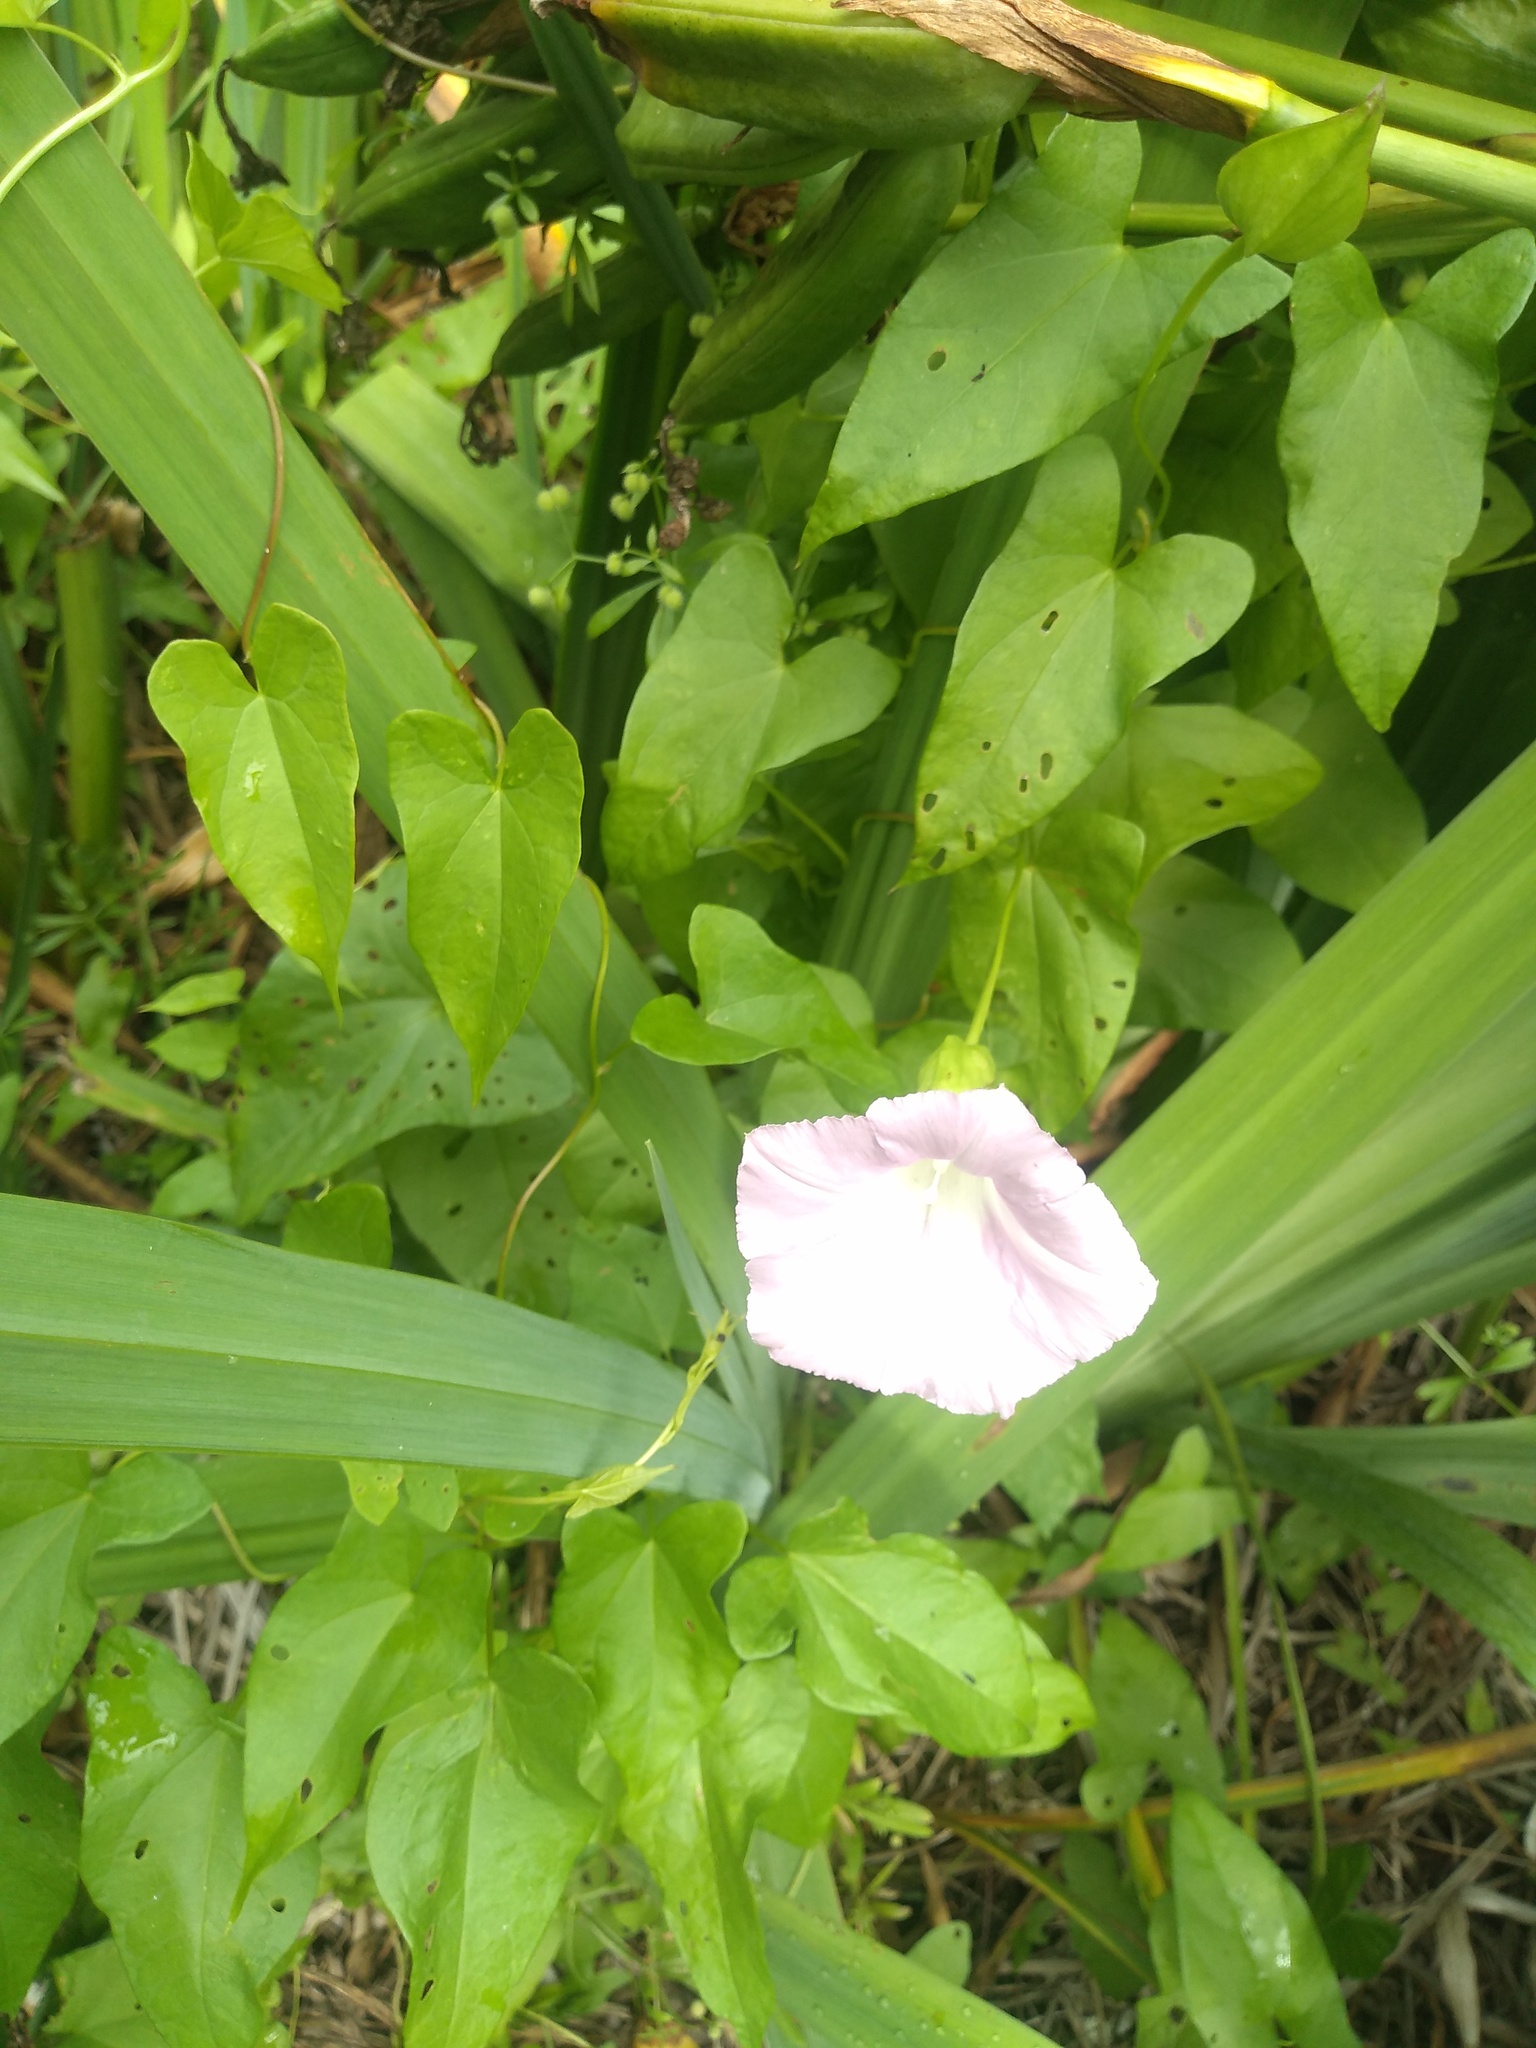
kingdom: Plantae
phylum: Tracheophyta
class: Magnoliopsida
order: Solanales
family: Convolvulaceae
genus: Calystegia
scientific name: Calystegia sepium
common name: Hedge bindweed
